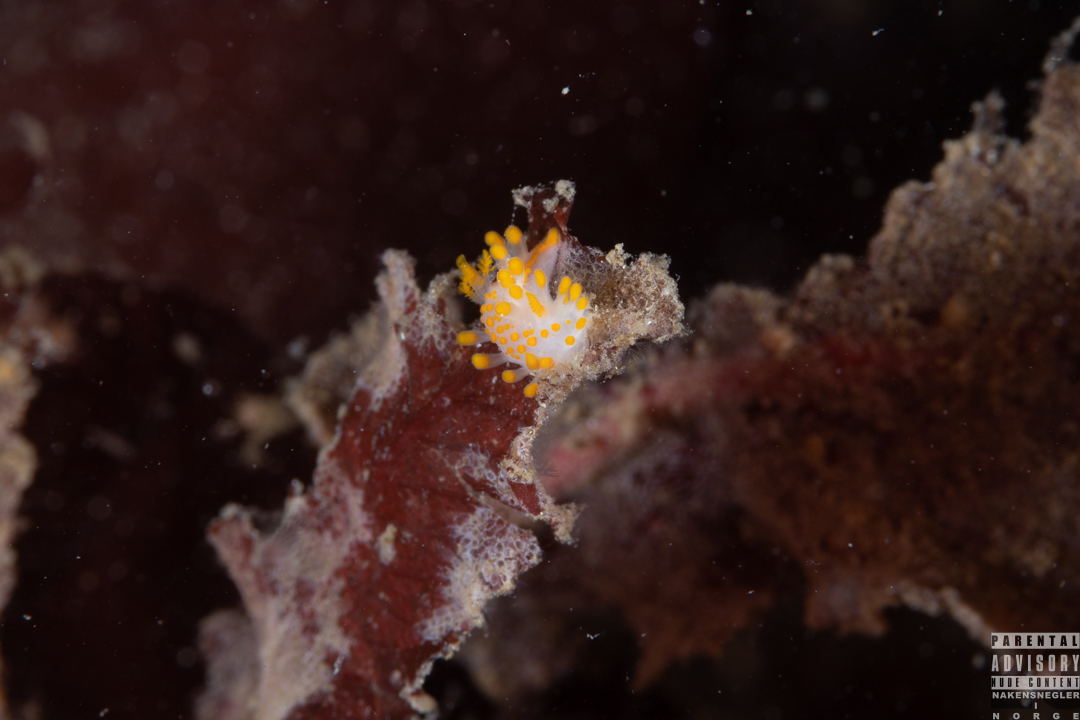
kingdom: Animalia
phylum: Mollusca
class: Gastropoda
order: Nudibranchia
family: Polyceridae
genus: Limacia
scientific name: Limacia clavigera
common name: Orange-clubbed sea slug
